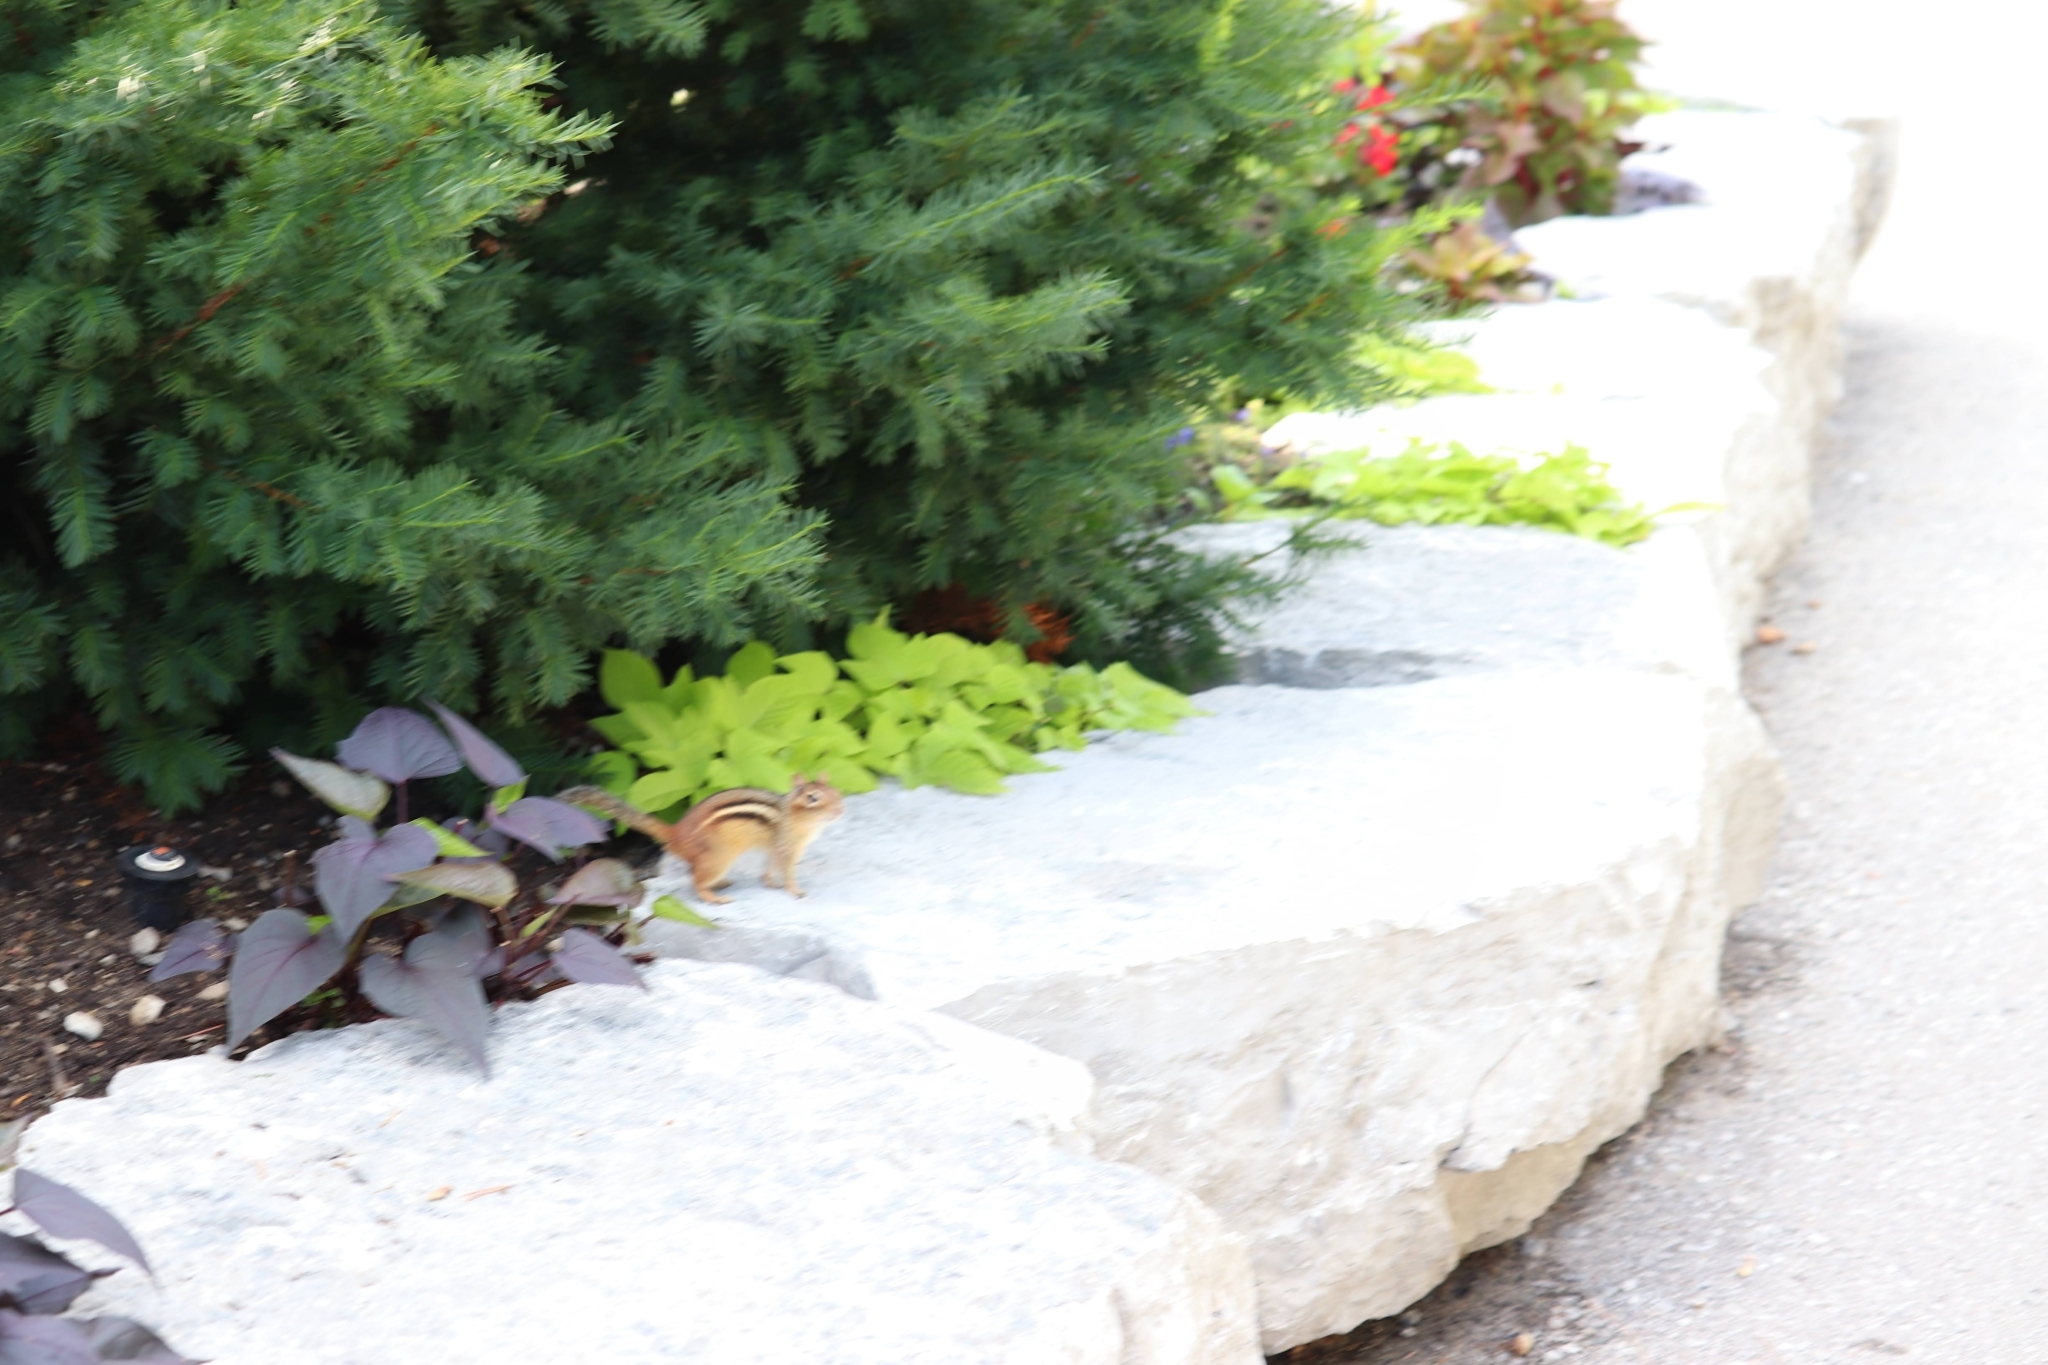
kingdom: Animalia
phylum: Chordata
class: Mammalia
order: Rodentia
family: Sciuridae
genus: Tamias
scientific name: Tamias striatus
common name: Eastern chipmunk
